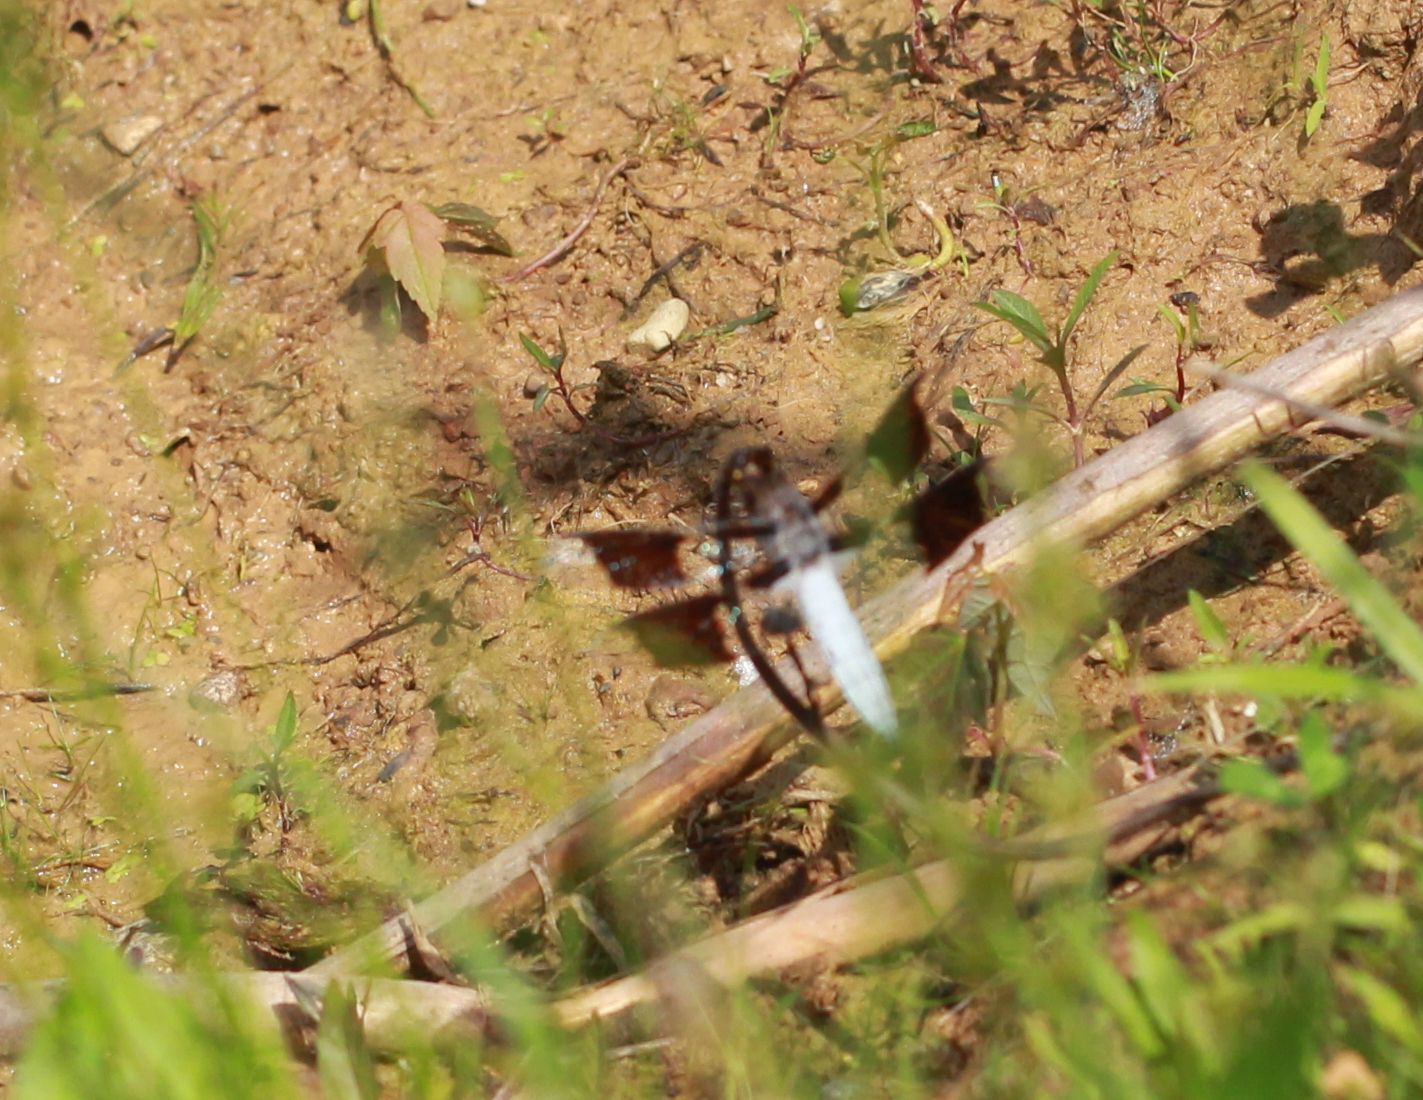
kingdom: Animalia
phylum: Arthropoda
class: Insecta
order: Odonata
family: Libellulidae
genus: Plathemis
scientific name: Plathemis lydia
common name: Common whitetail
